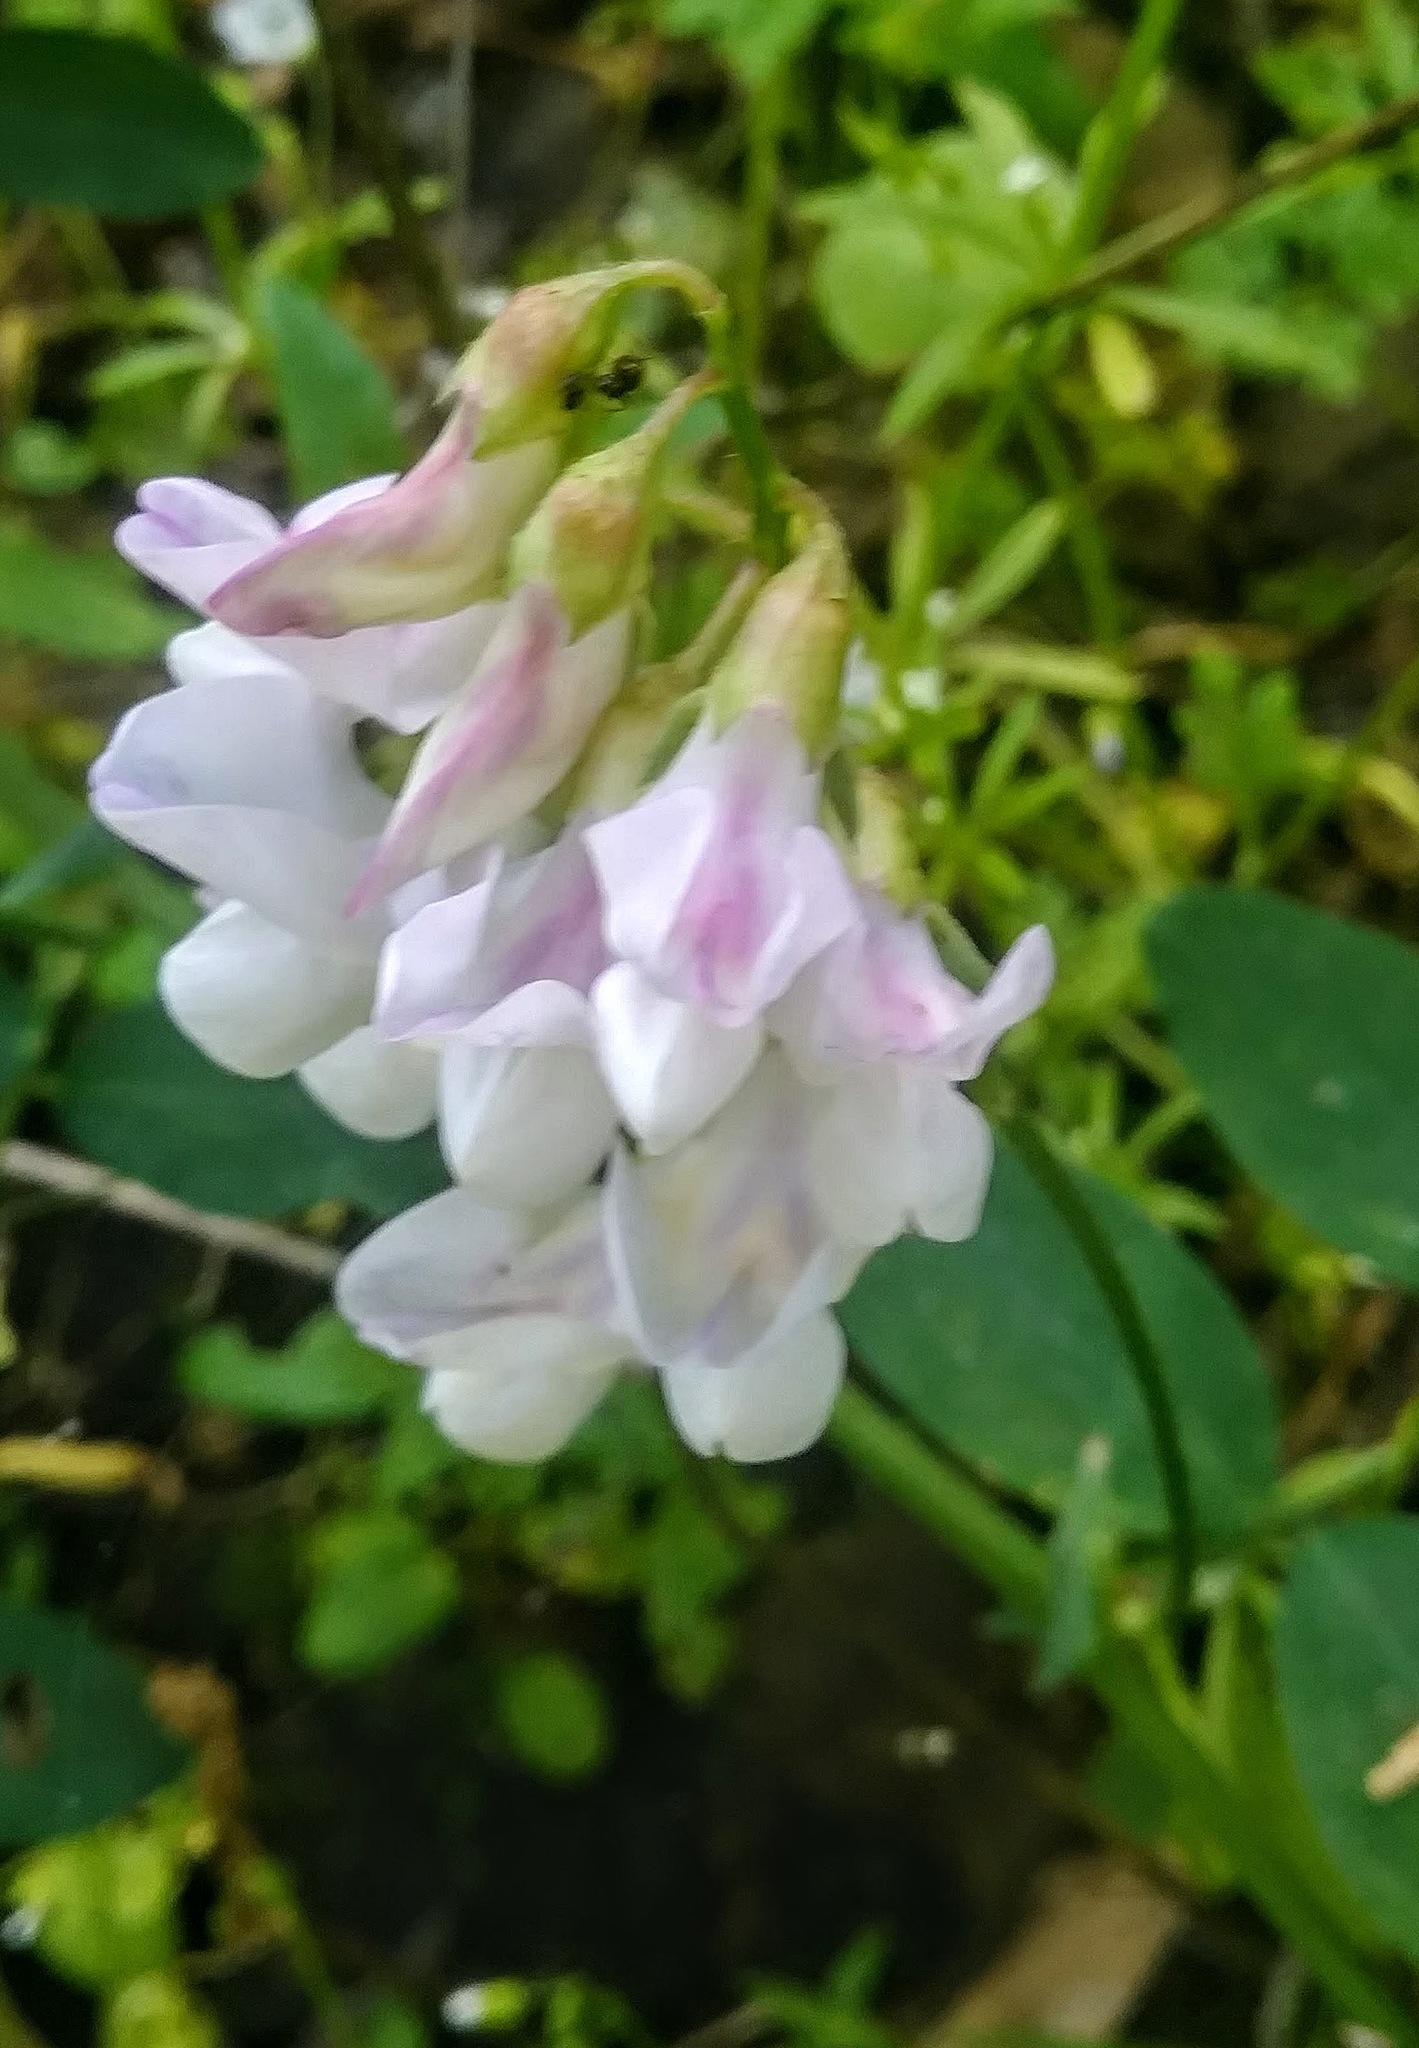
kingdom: Plantae
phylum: Tracheophyta
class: Magnoliopsida
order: Fabales
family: Fabaceae
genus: Lathyrus
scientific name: Lathyrus vestitus
